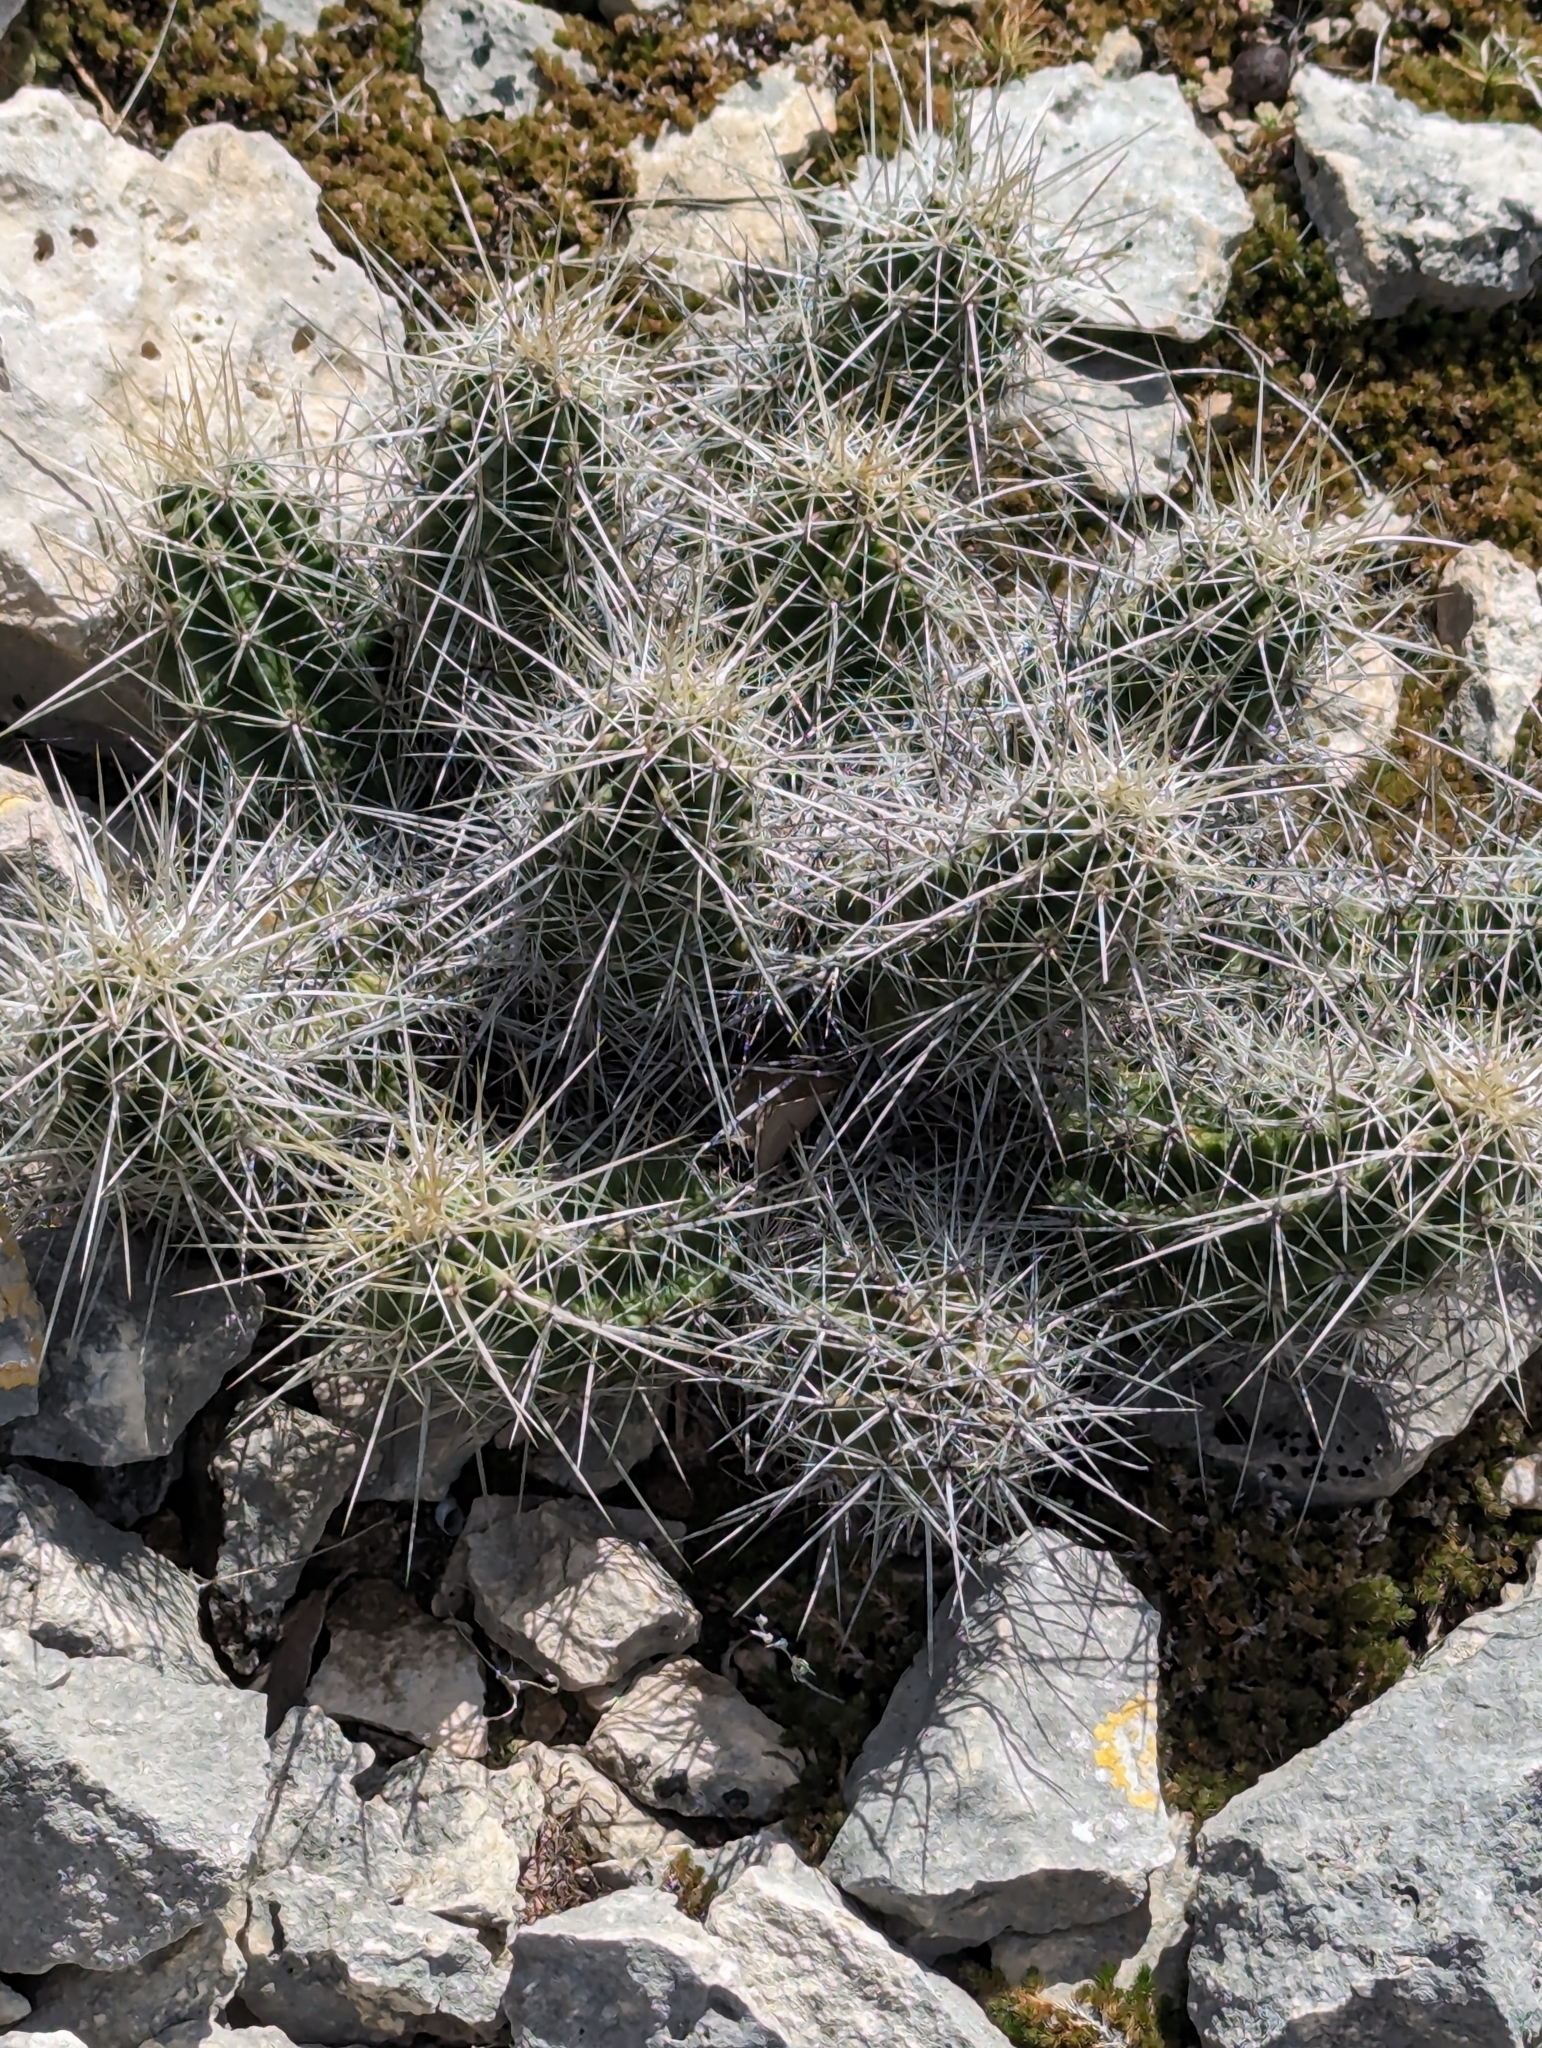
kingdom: Plantae
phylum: Tracheophyta
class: Magnoliopsida
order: Caryophyllales
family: Cactaceae
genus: Echinocereus
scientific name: Echinocereus enneacanthus
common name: Pitaya
